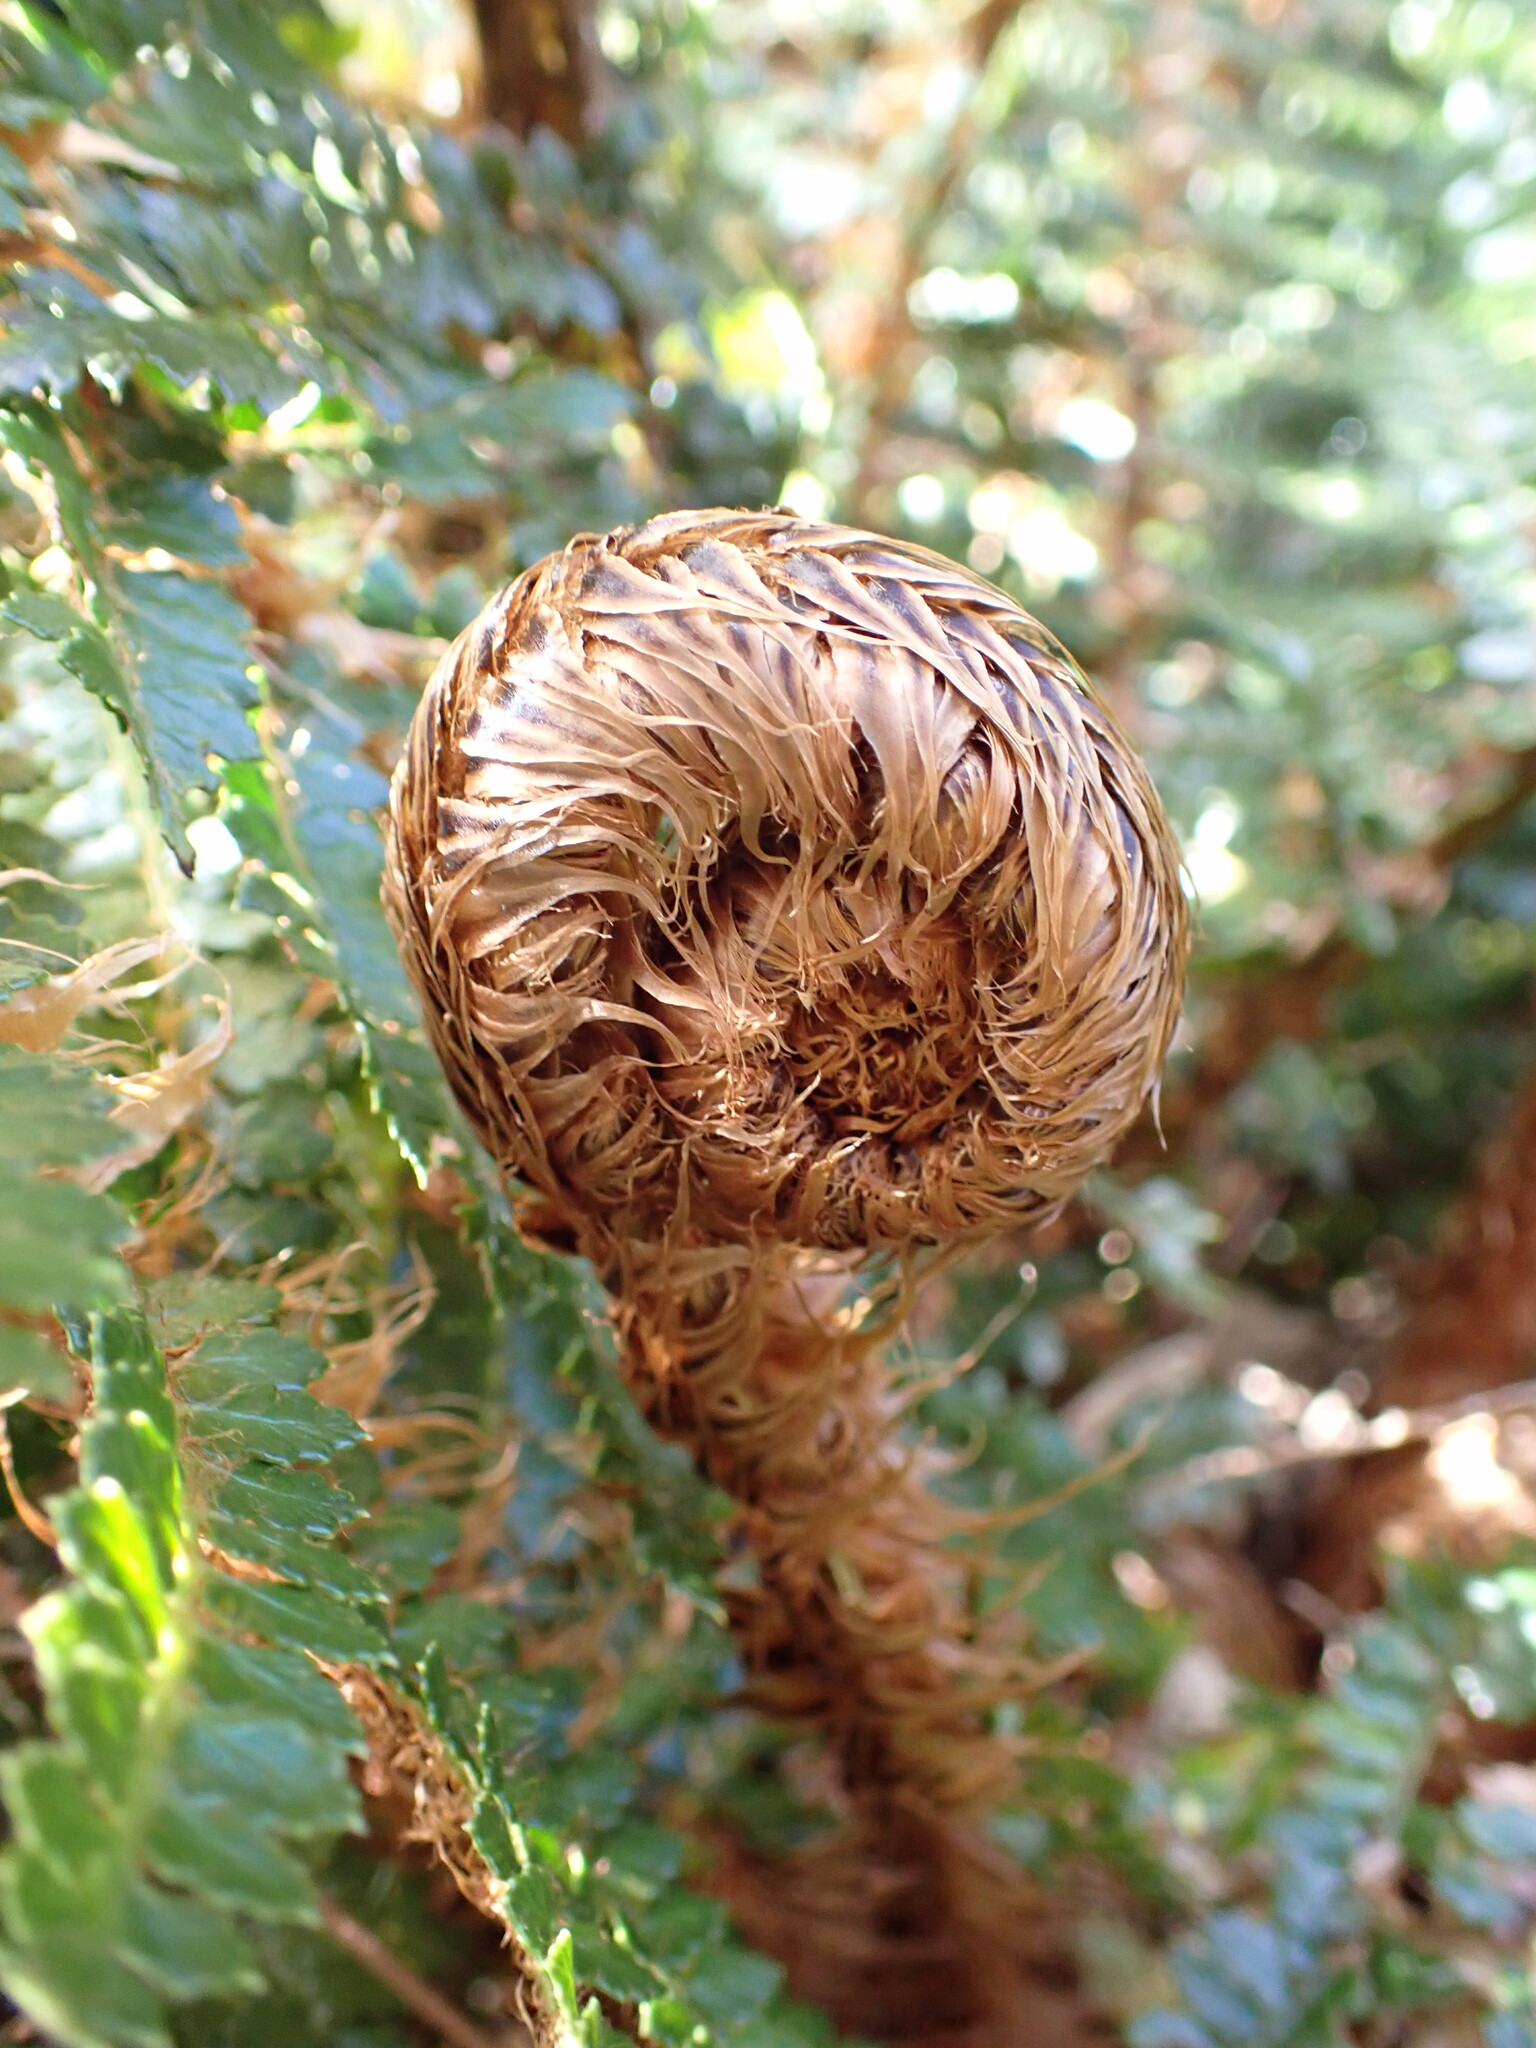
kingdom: Plantae
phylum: Tracheophyta
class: Polypodiopsida
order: Polypodiales
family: Dryopteridaceae
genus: Polystichum
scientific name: Polystichum vestitum
